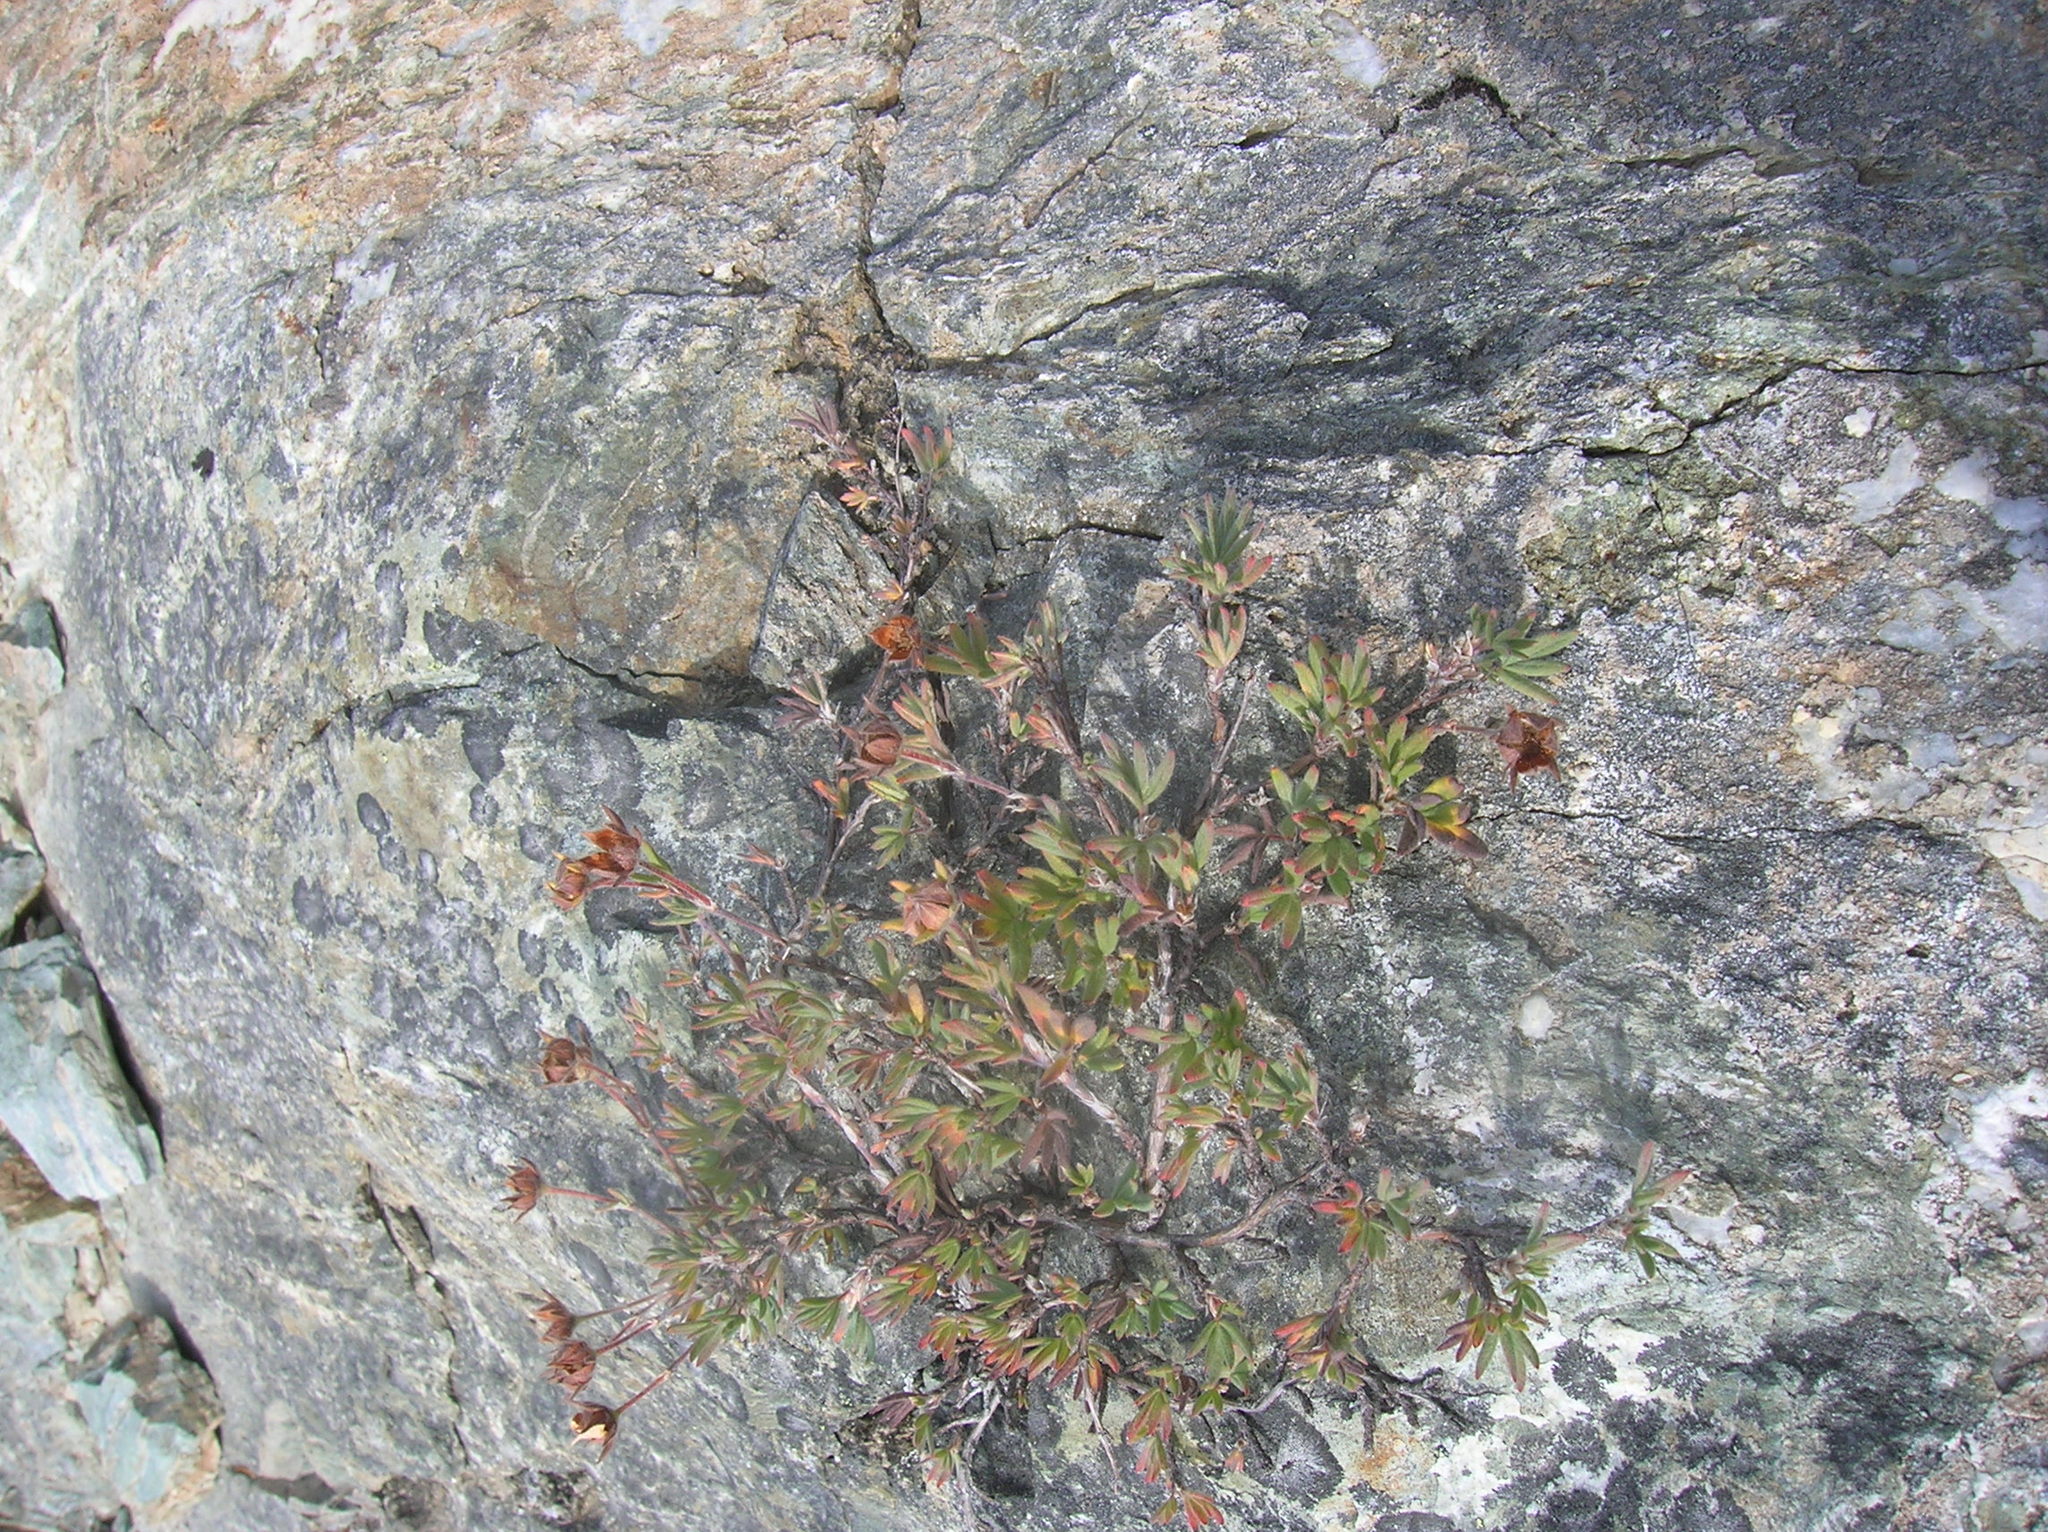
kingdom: Plantae
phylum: Tracheophyta
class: Magnoliopsida
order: Rosales
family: Rosaceae
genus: Dasiphora
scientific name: Dasiphora fruticosa
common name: Shrubby cinquefoil
